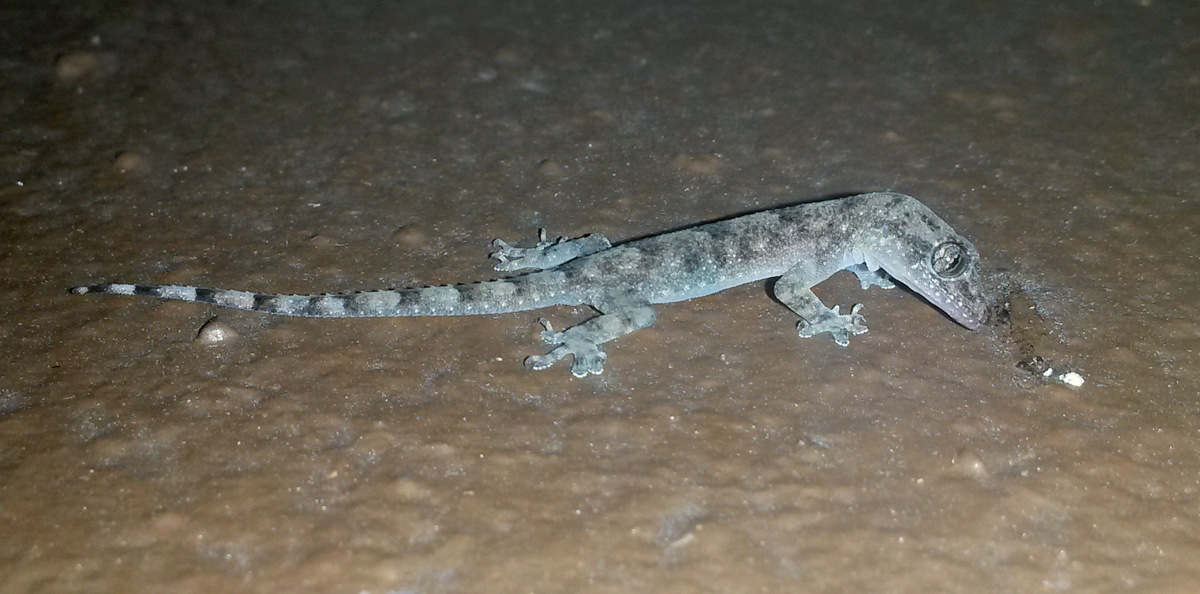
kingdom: Animalia
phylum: Chordata
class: Squamata
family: Gekkonidae
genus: Hemidactylus
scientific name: Hemidactylus mabouia
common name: House gecko
